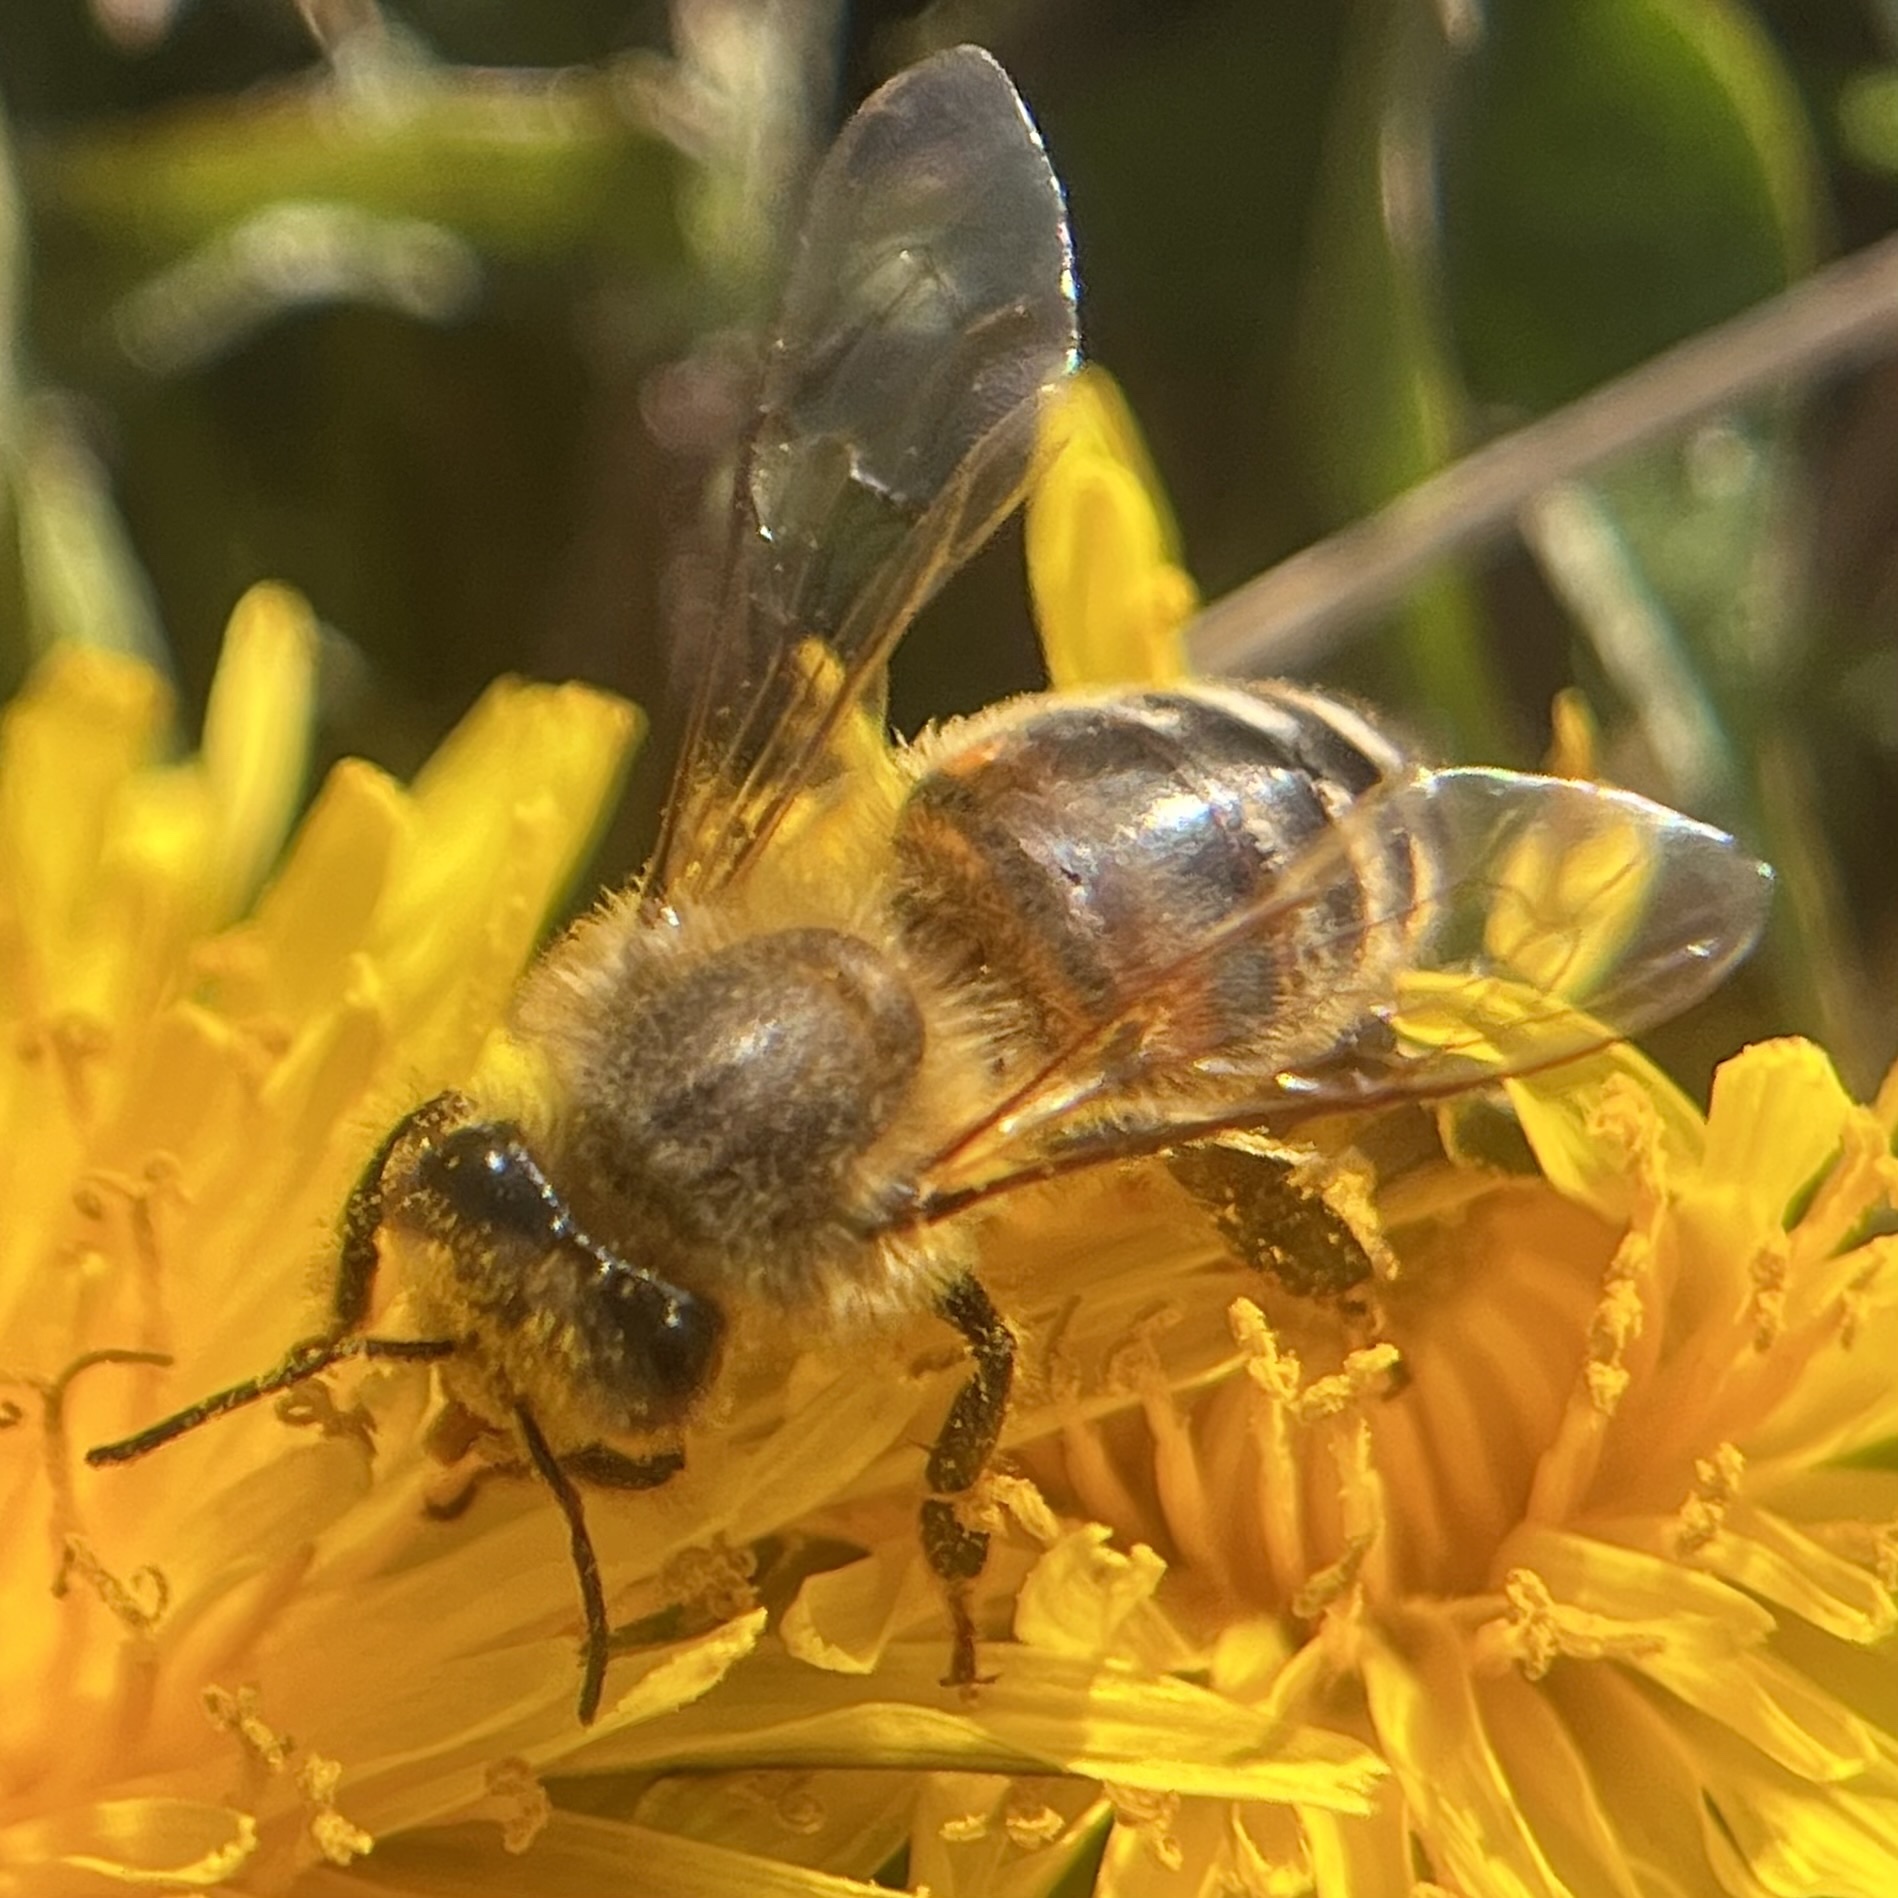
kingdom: Animalia
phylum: Arthropoda
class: Insecta
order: Hymenoptera
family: Apidae
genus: Apis
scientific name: Apis mellifera
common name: Honey bee
